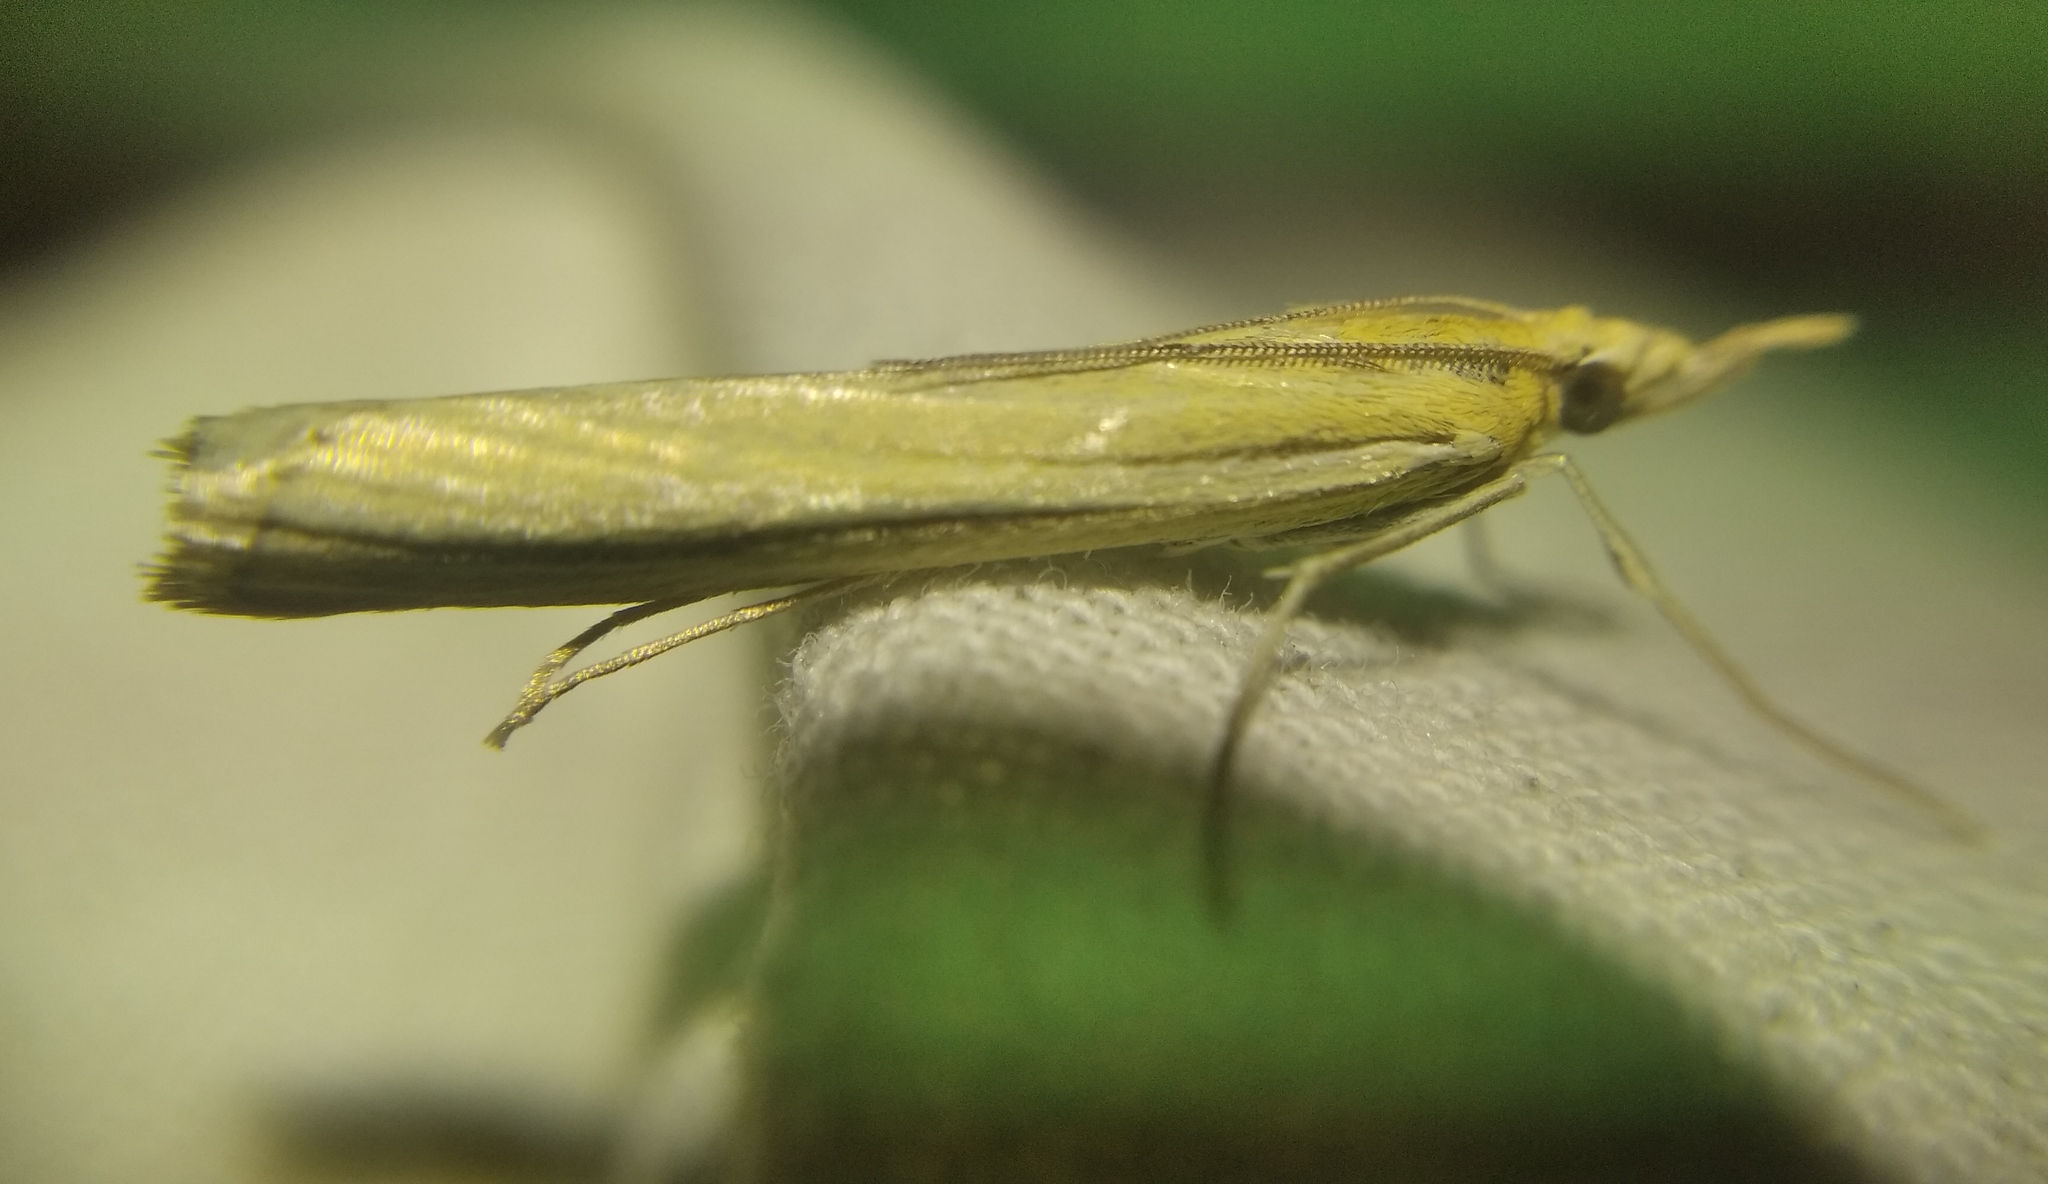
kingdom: Animalia
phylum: Arthropoda
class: Insecta
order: Lepidoptera
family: Crambidae
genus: Agriphila
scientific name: Agriphila deliella
